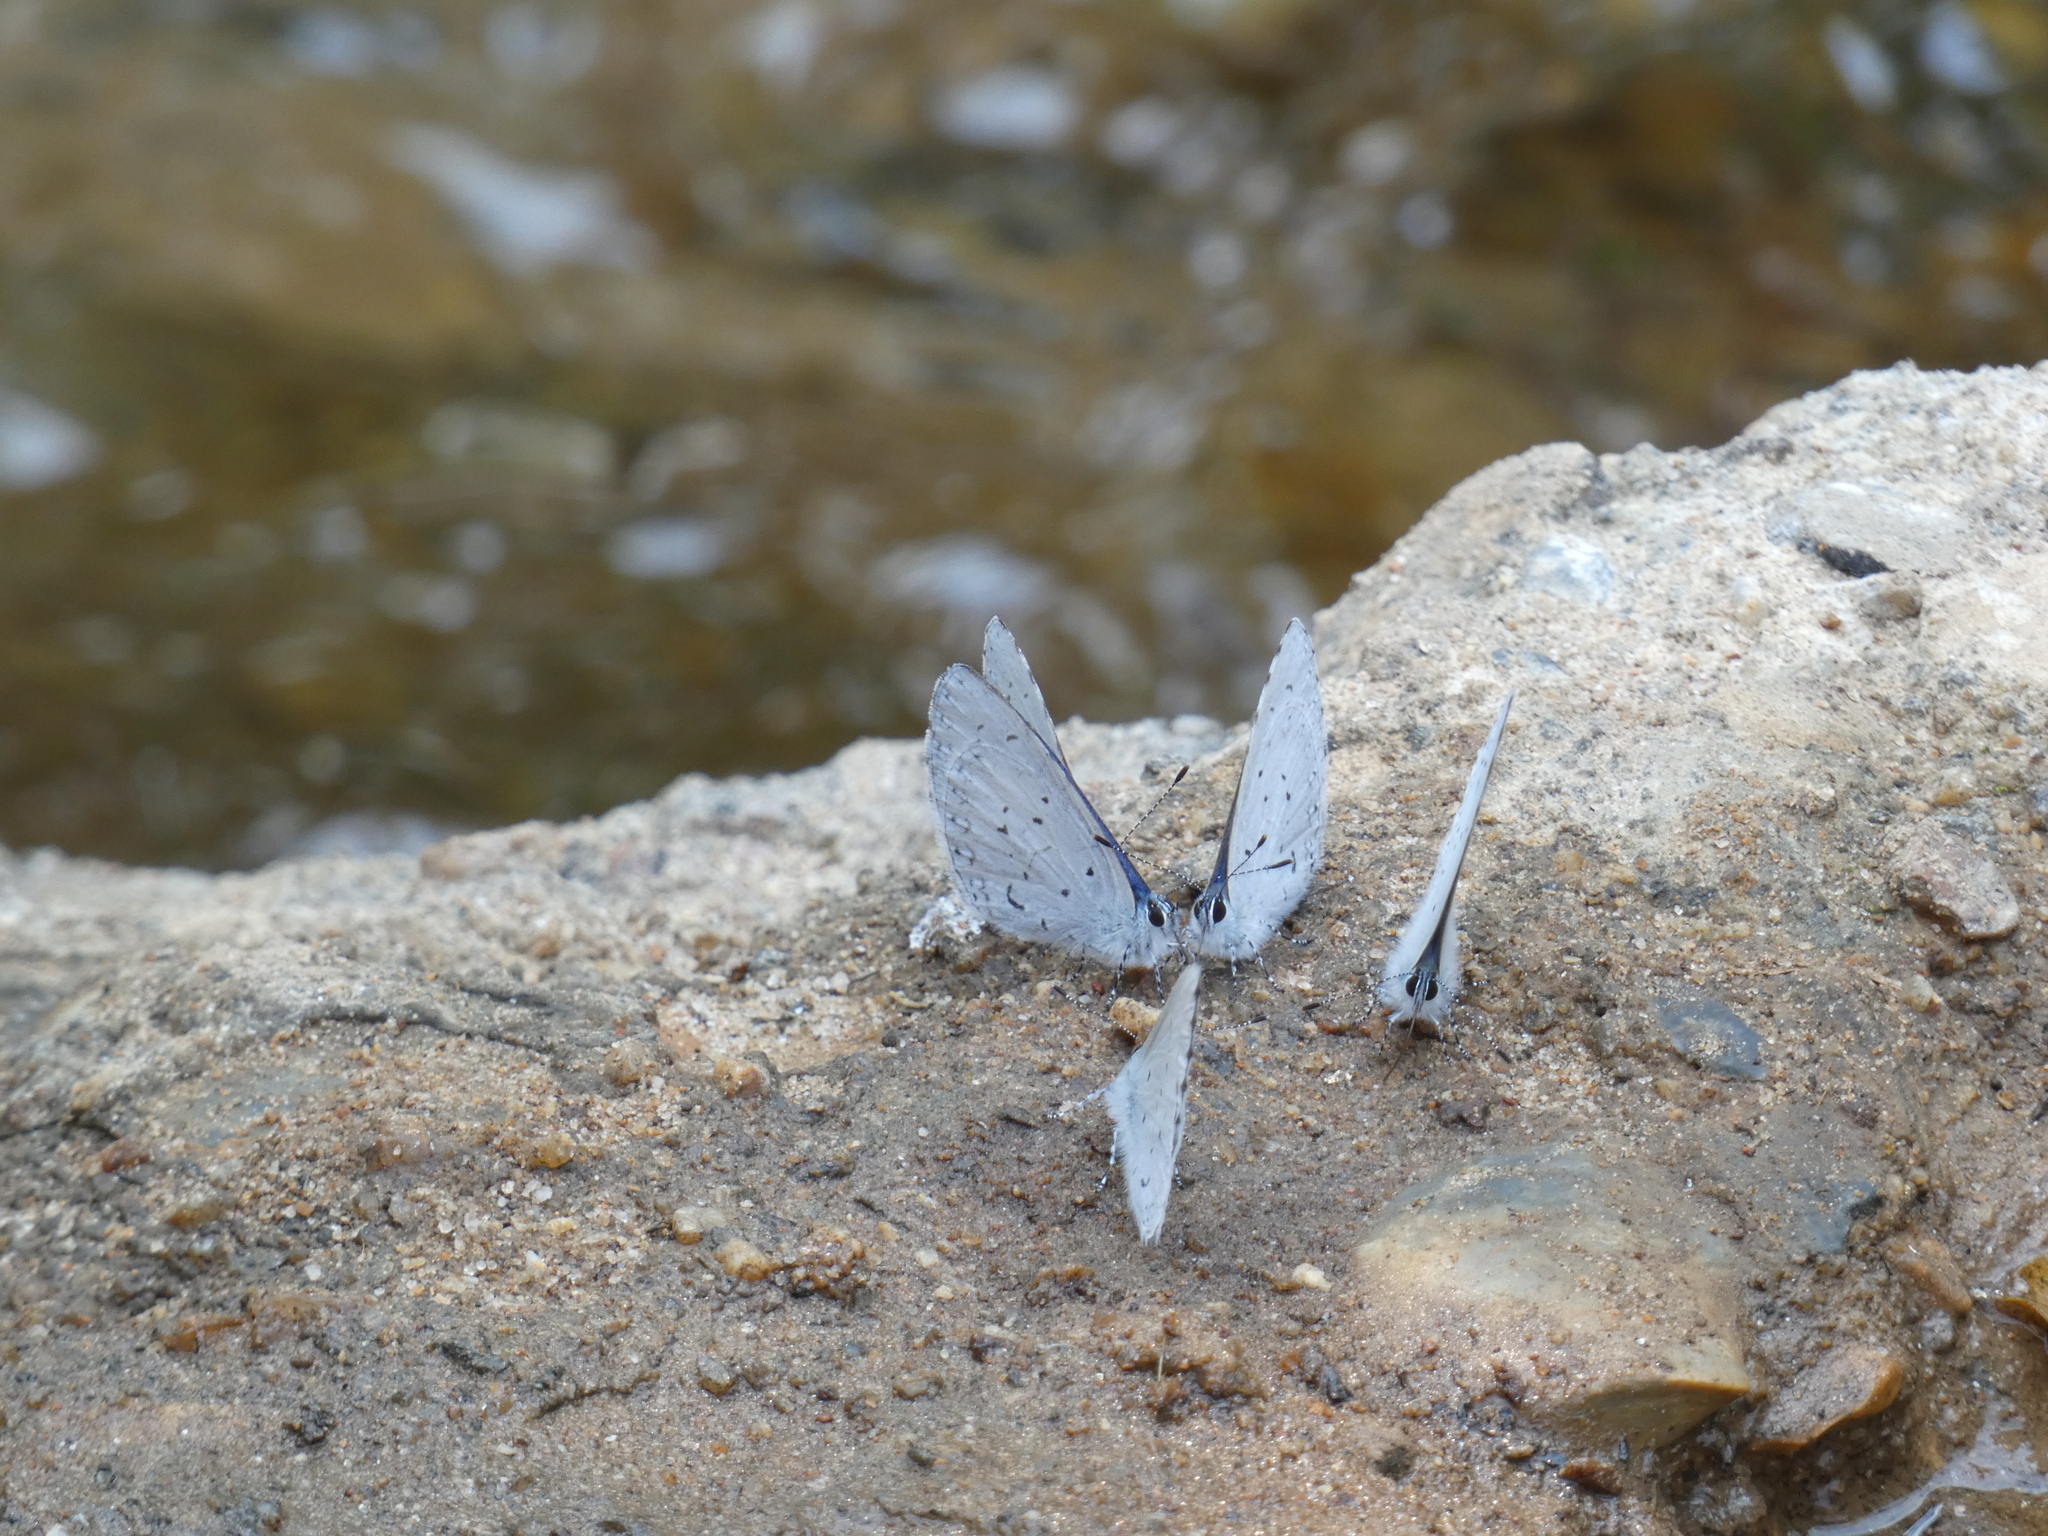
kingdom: Animalia
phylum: Arthropoda
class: Insecta
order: Lepidoptera
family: Lycaenidae
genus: Udara
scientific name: Udara dilectus
